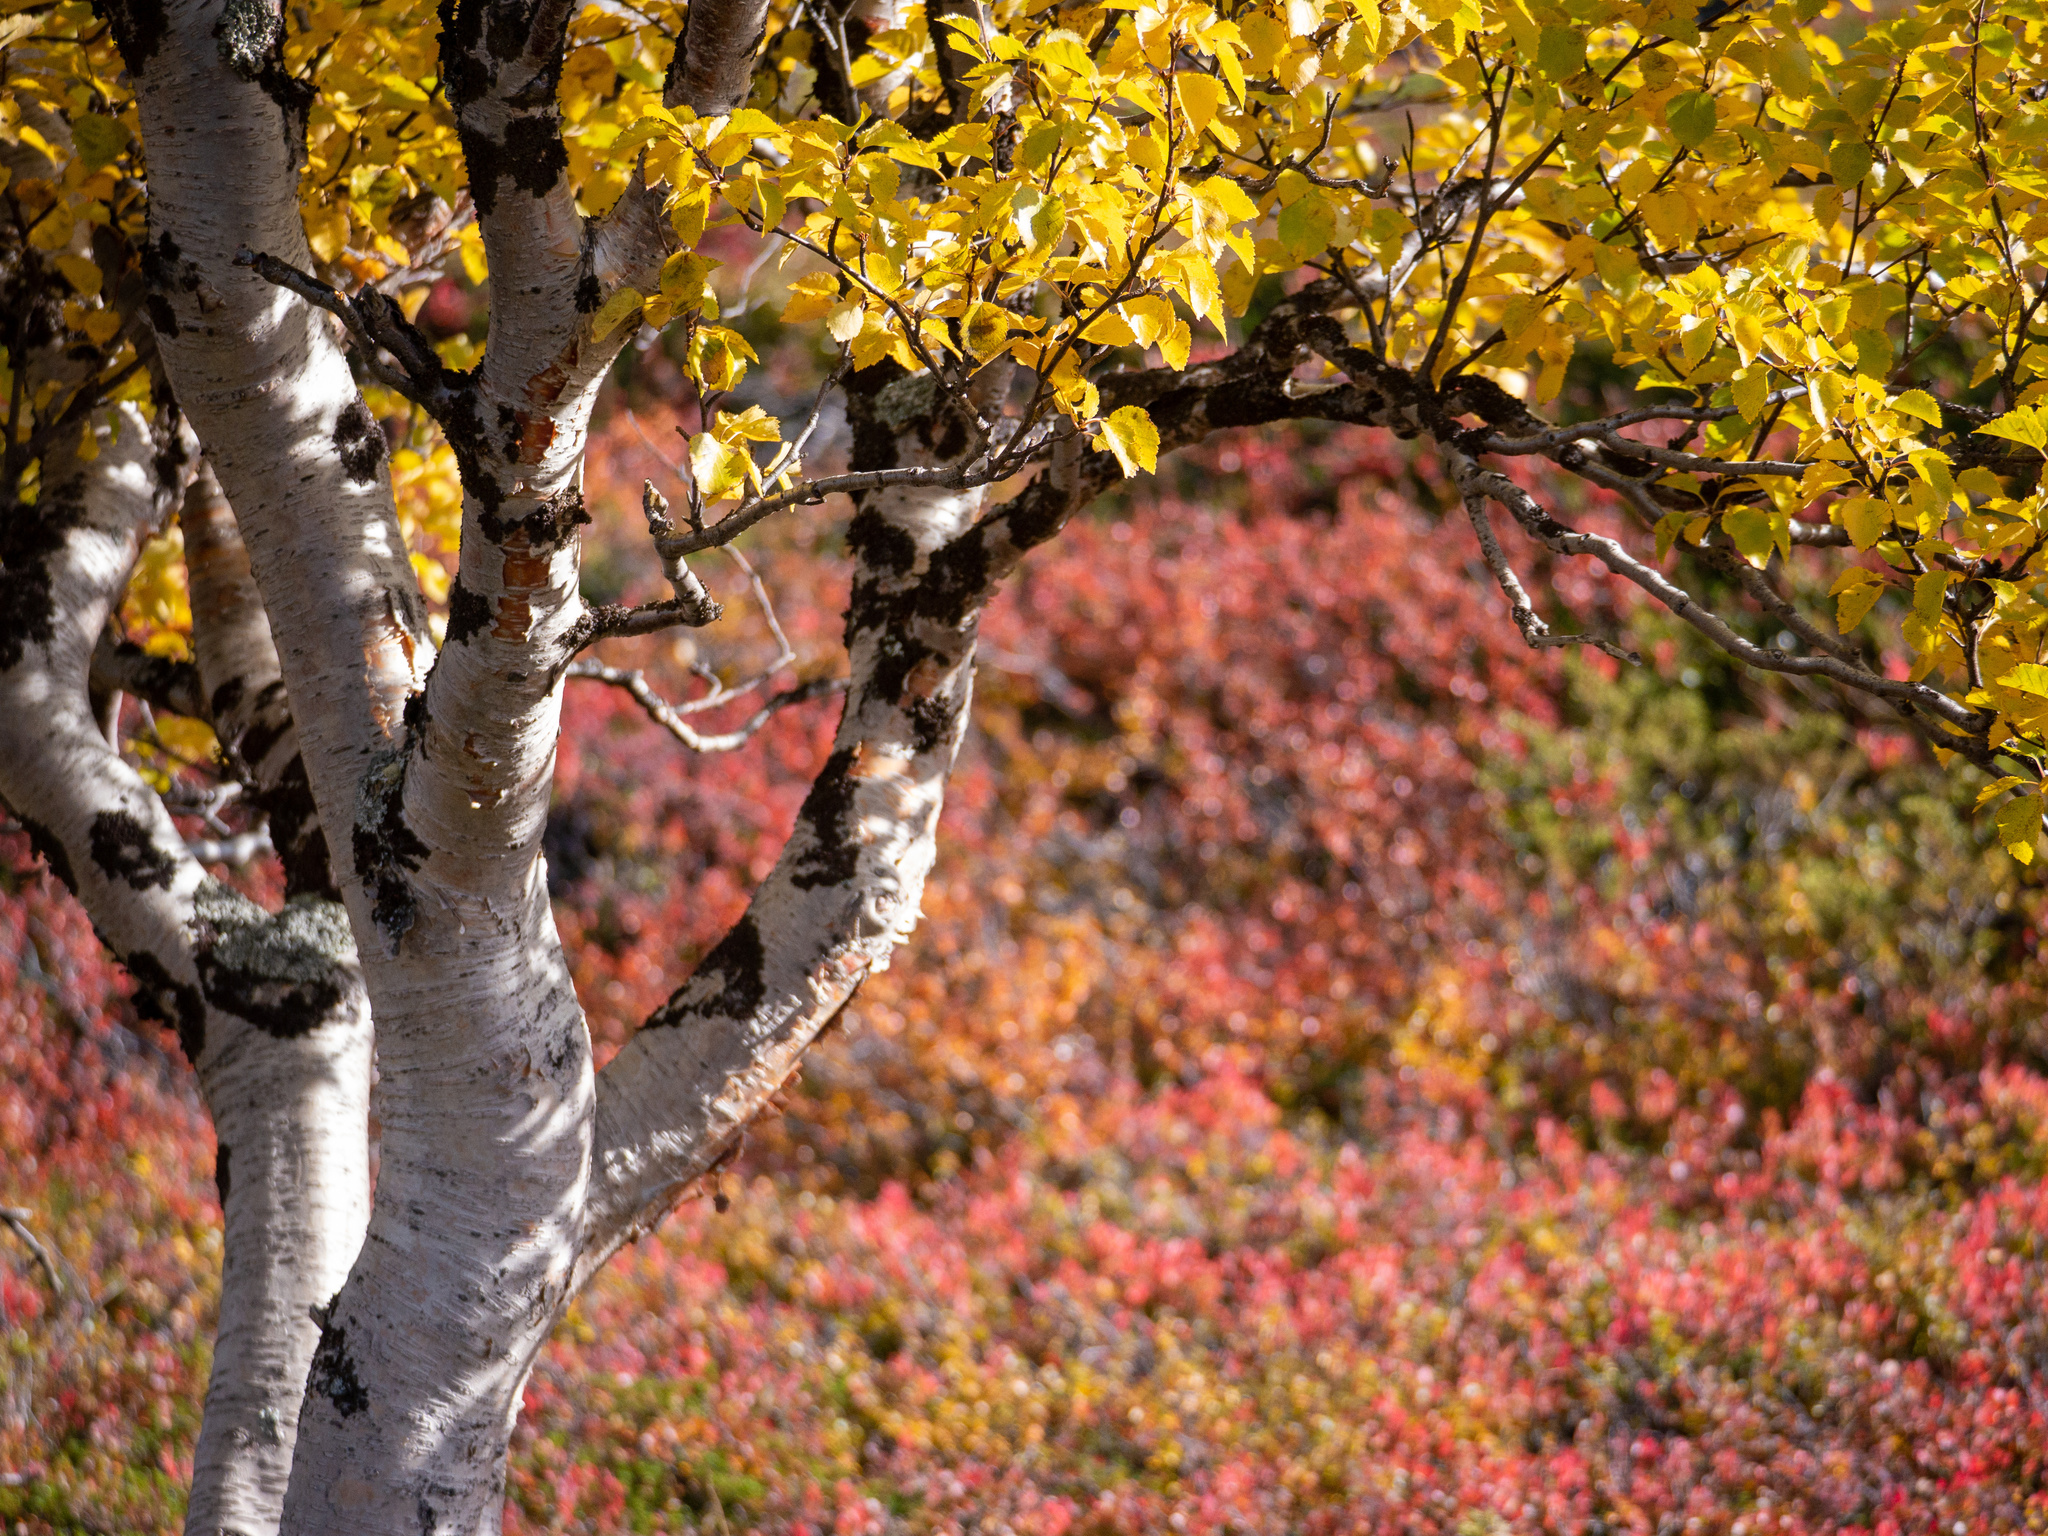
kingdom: Plantae
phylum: Tracheophyta
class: Magnoliopsida
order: Fagales
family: Betulaceae
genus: Betula
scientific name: Betula pubescens
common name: Downy birch
